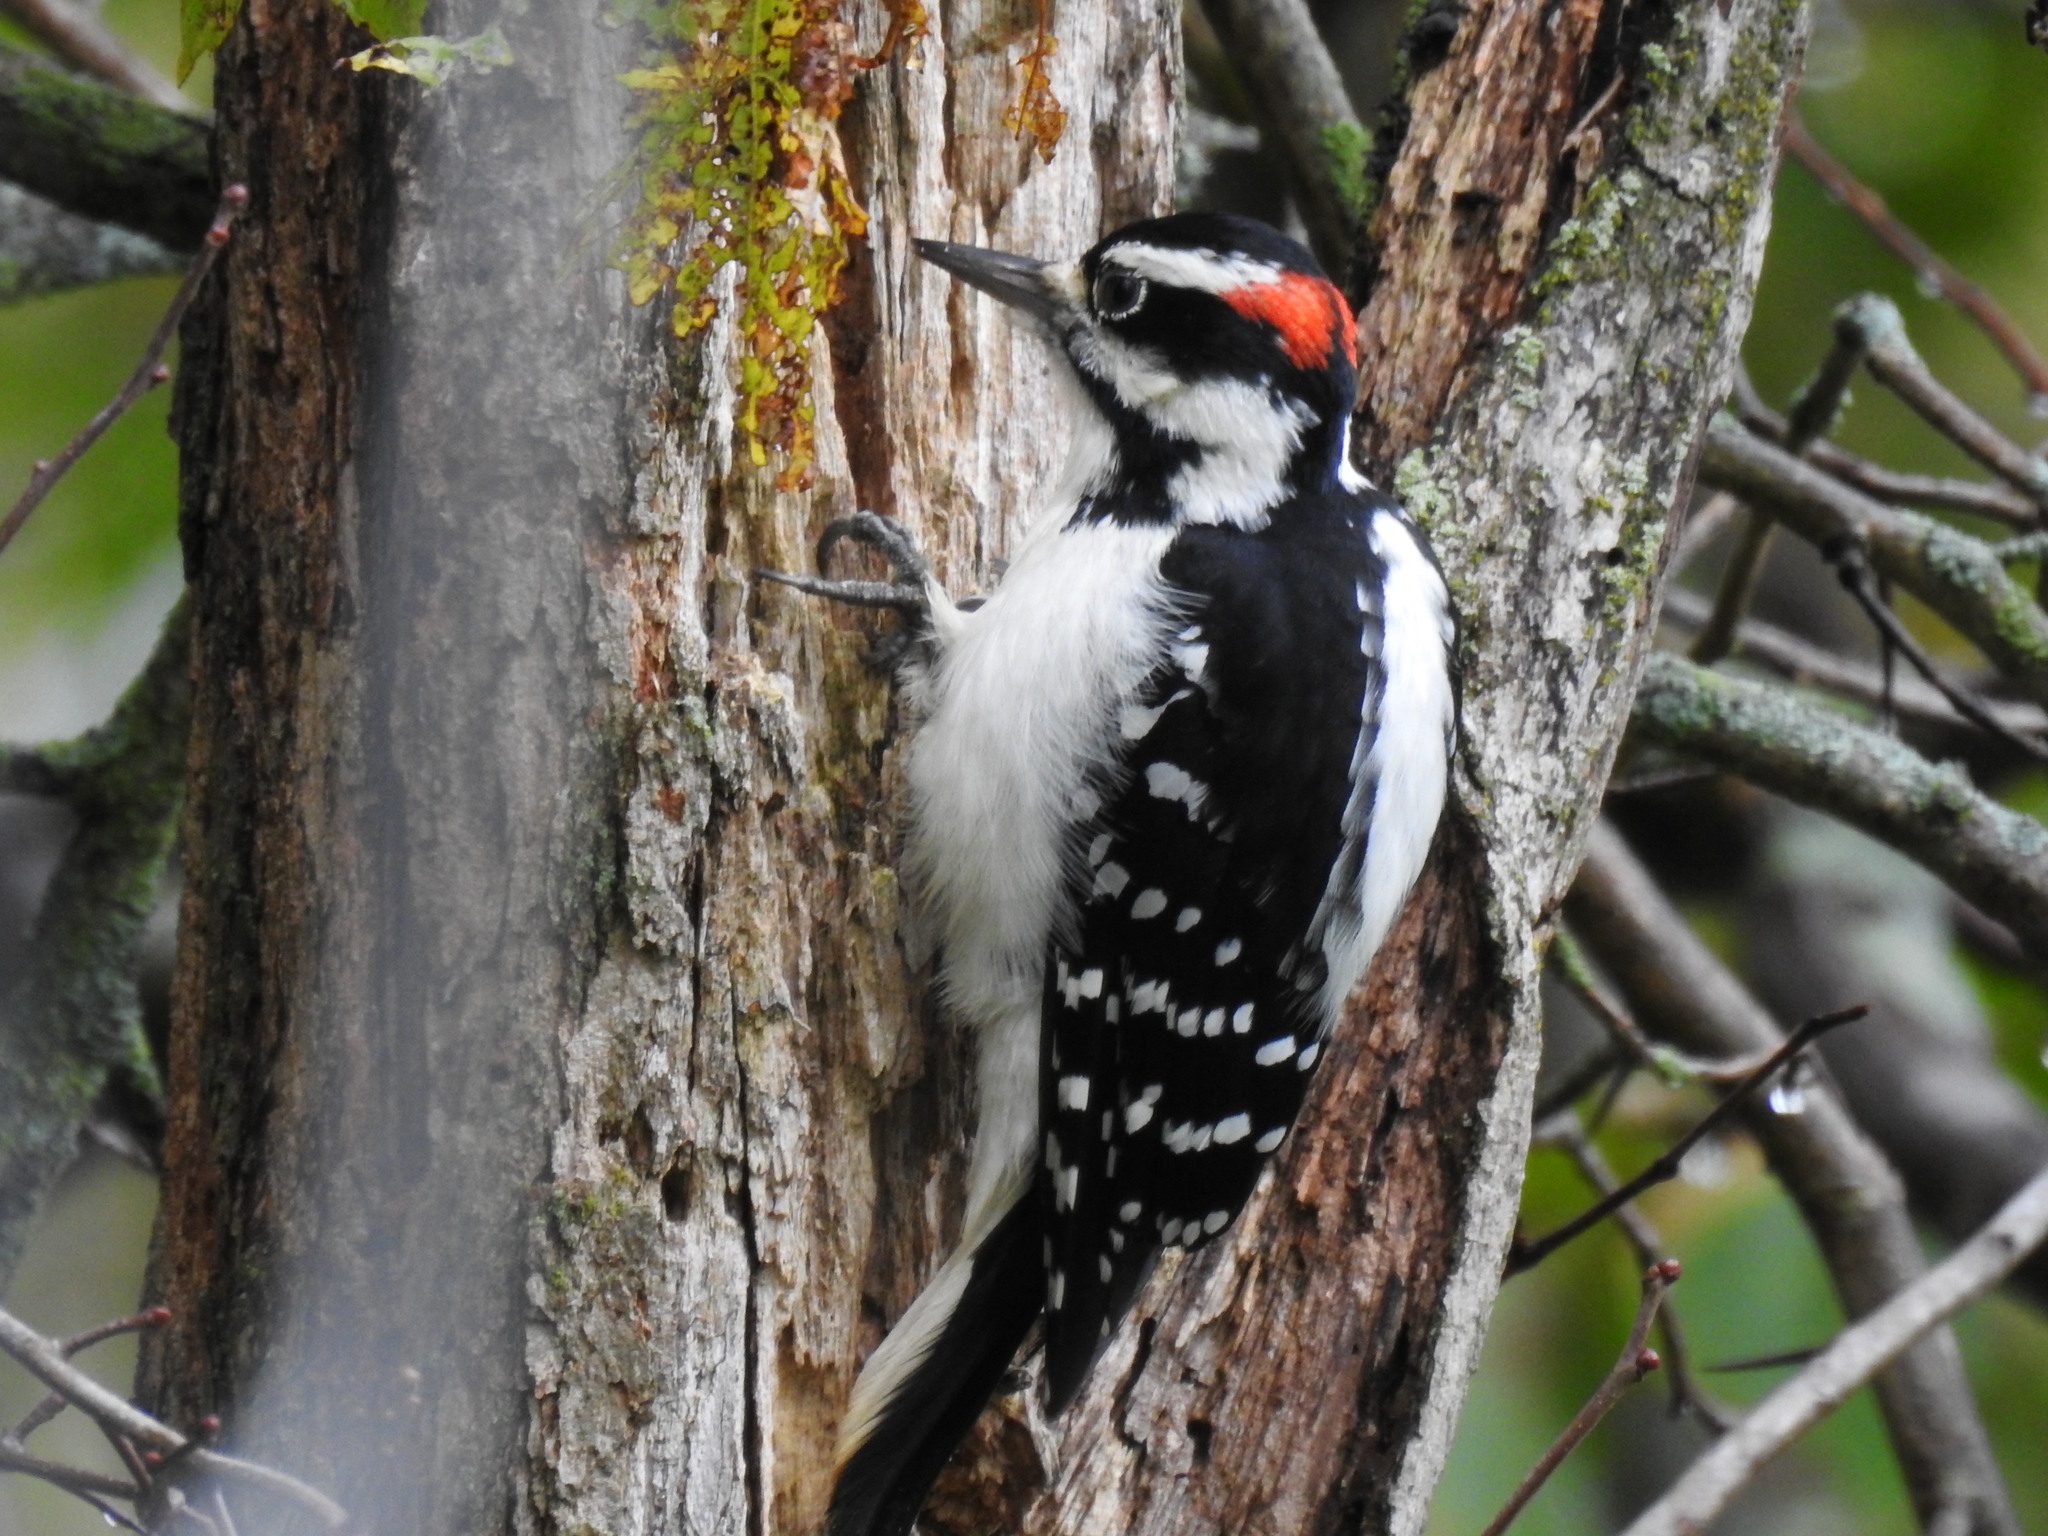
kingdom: Animalia
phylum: Chordata
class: Aves
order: Piciformes
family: Picidae
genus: Leuconotopicus
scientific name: Leuconotopicus villosus
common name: Hairy woodpecker
